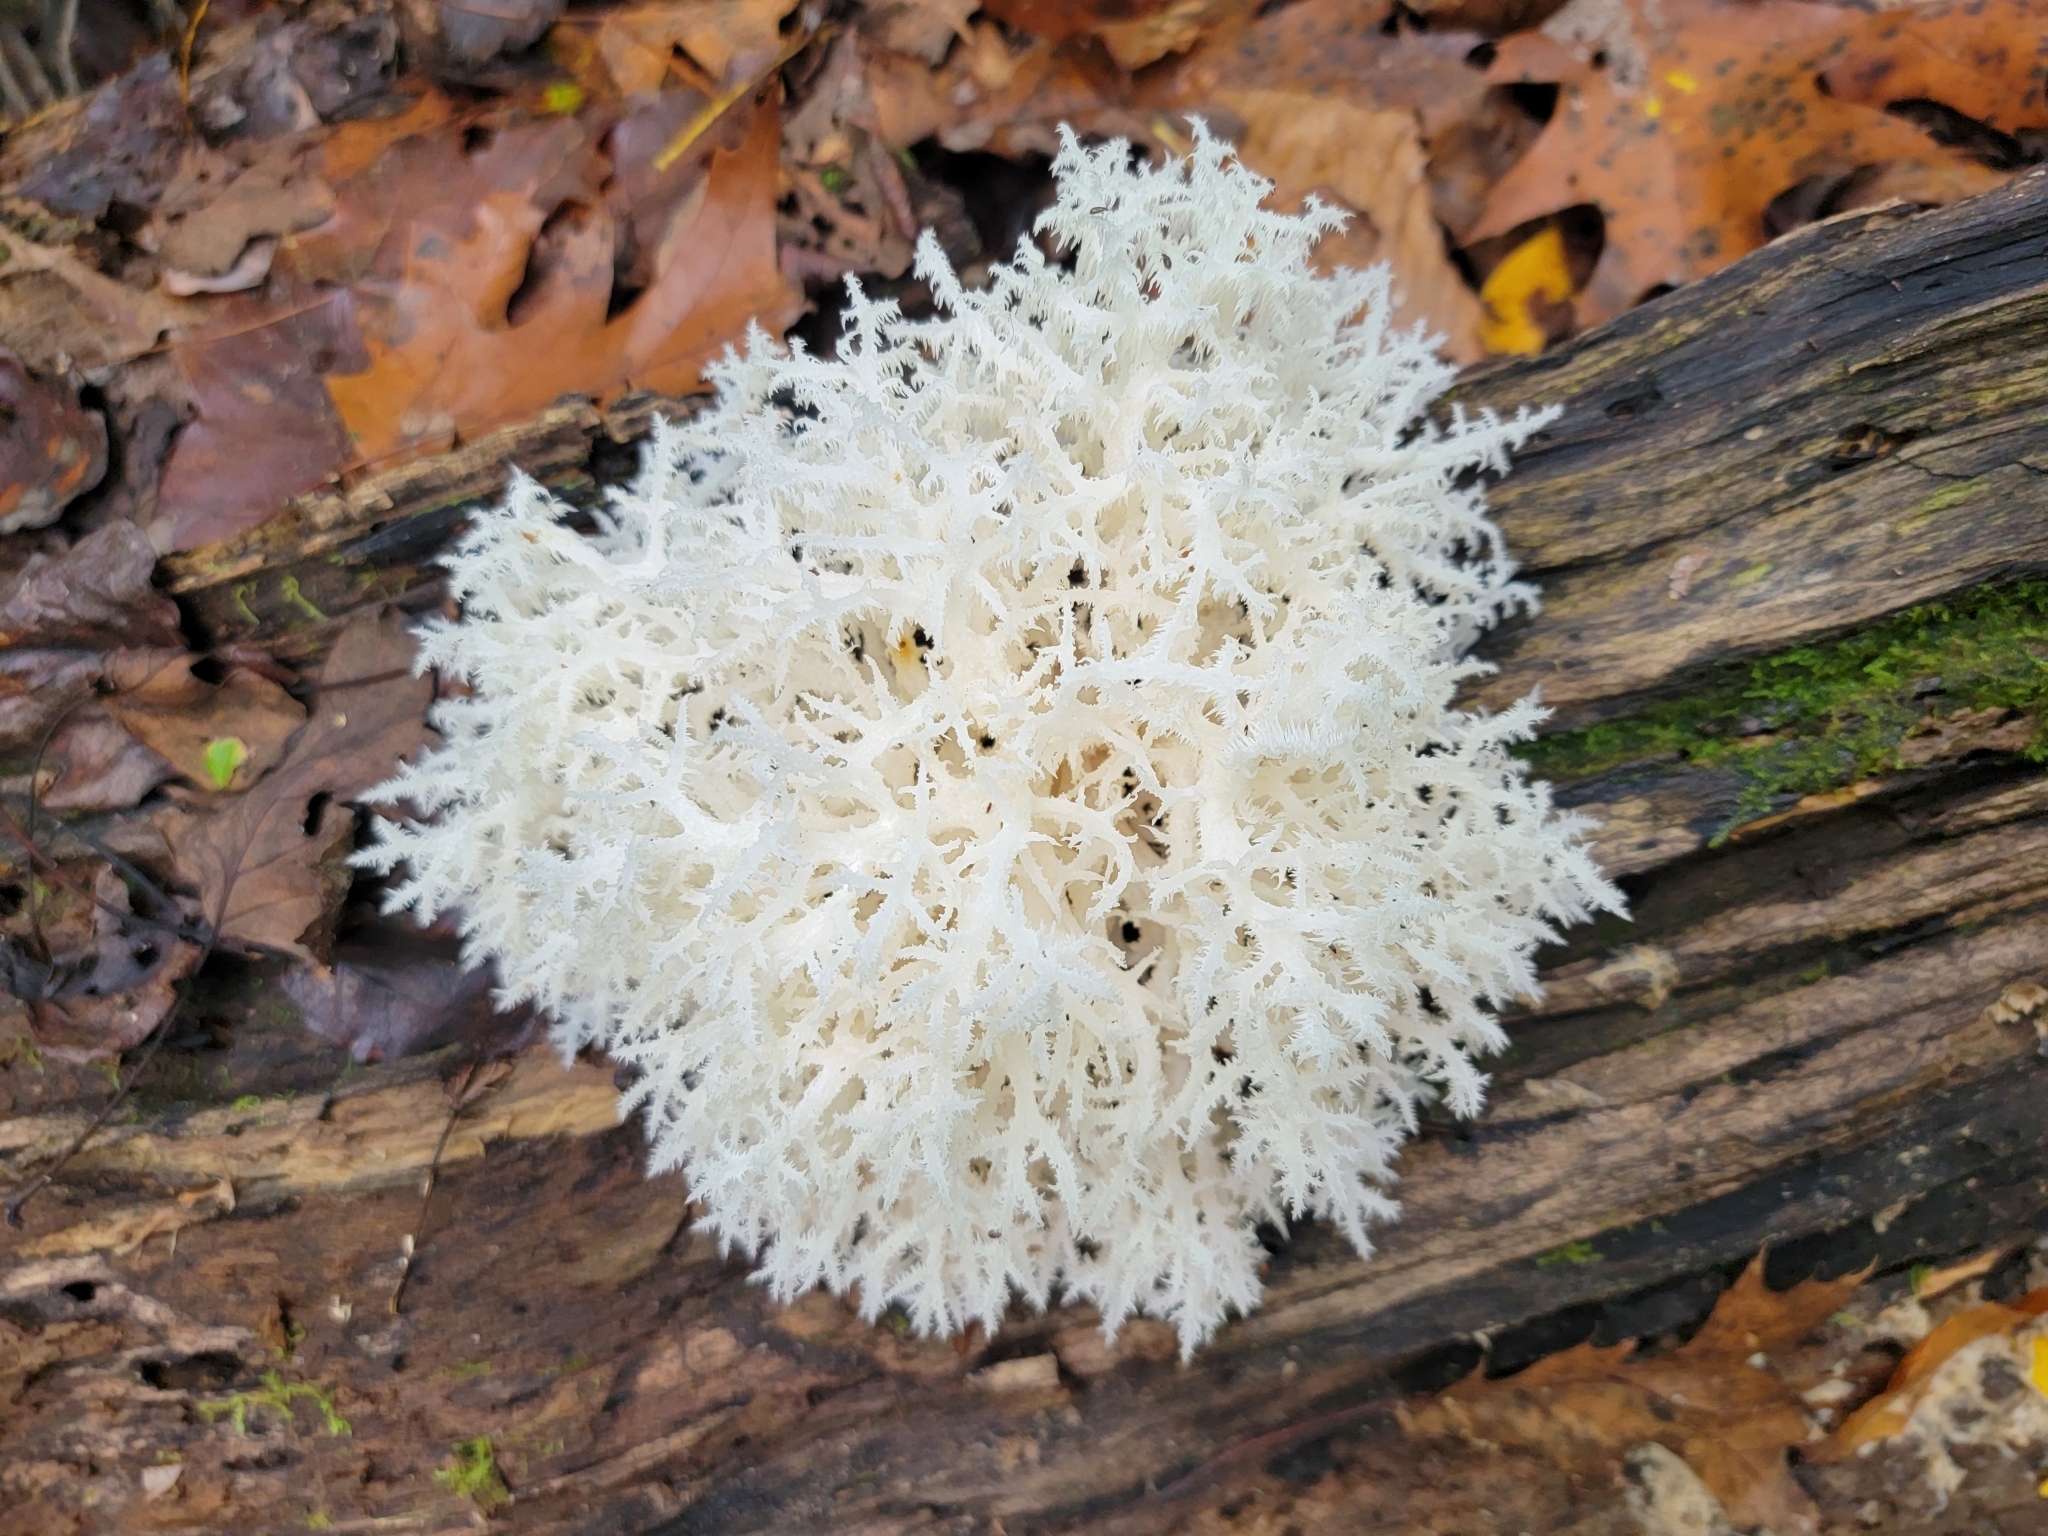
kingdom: Fungi
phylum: Basidiomycota
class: Agaricomycetes
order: Russulales
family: Hericiaceae
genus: Hericium
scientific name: Hericium coralloides
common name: Coral tooth
